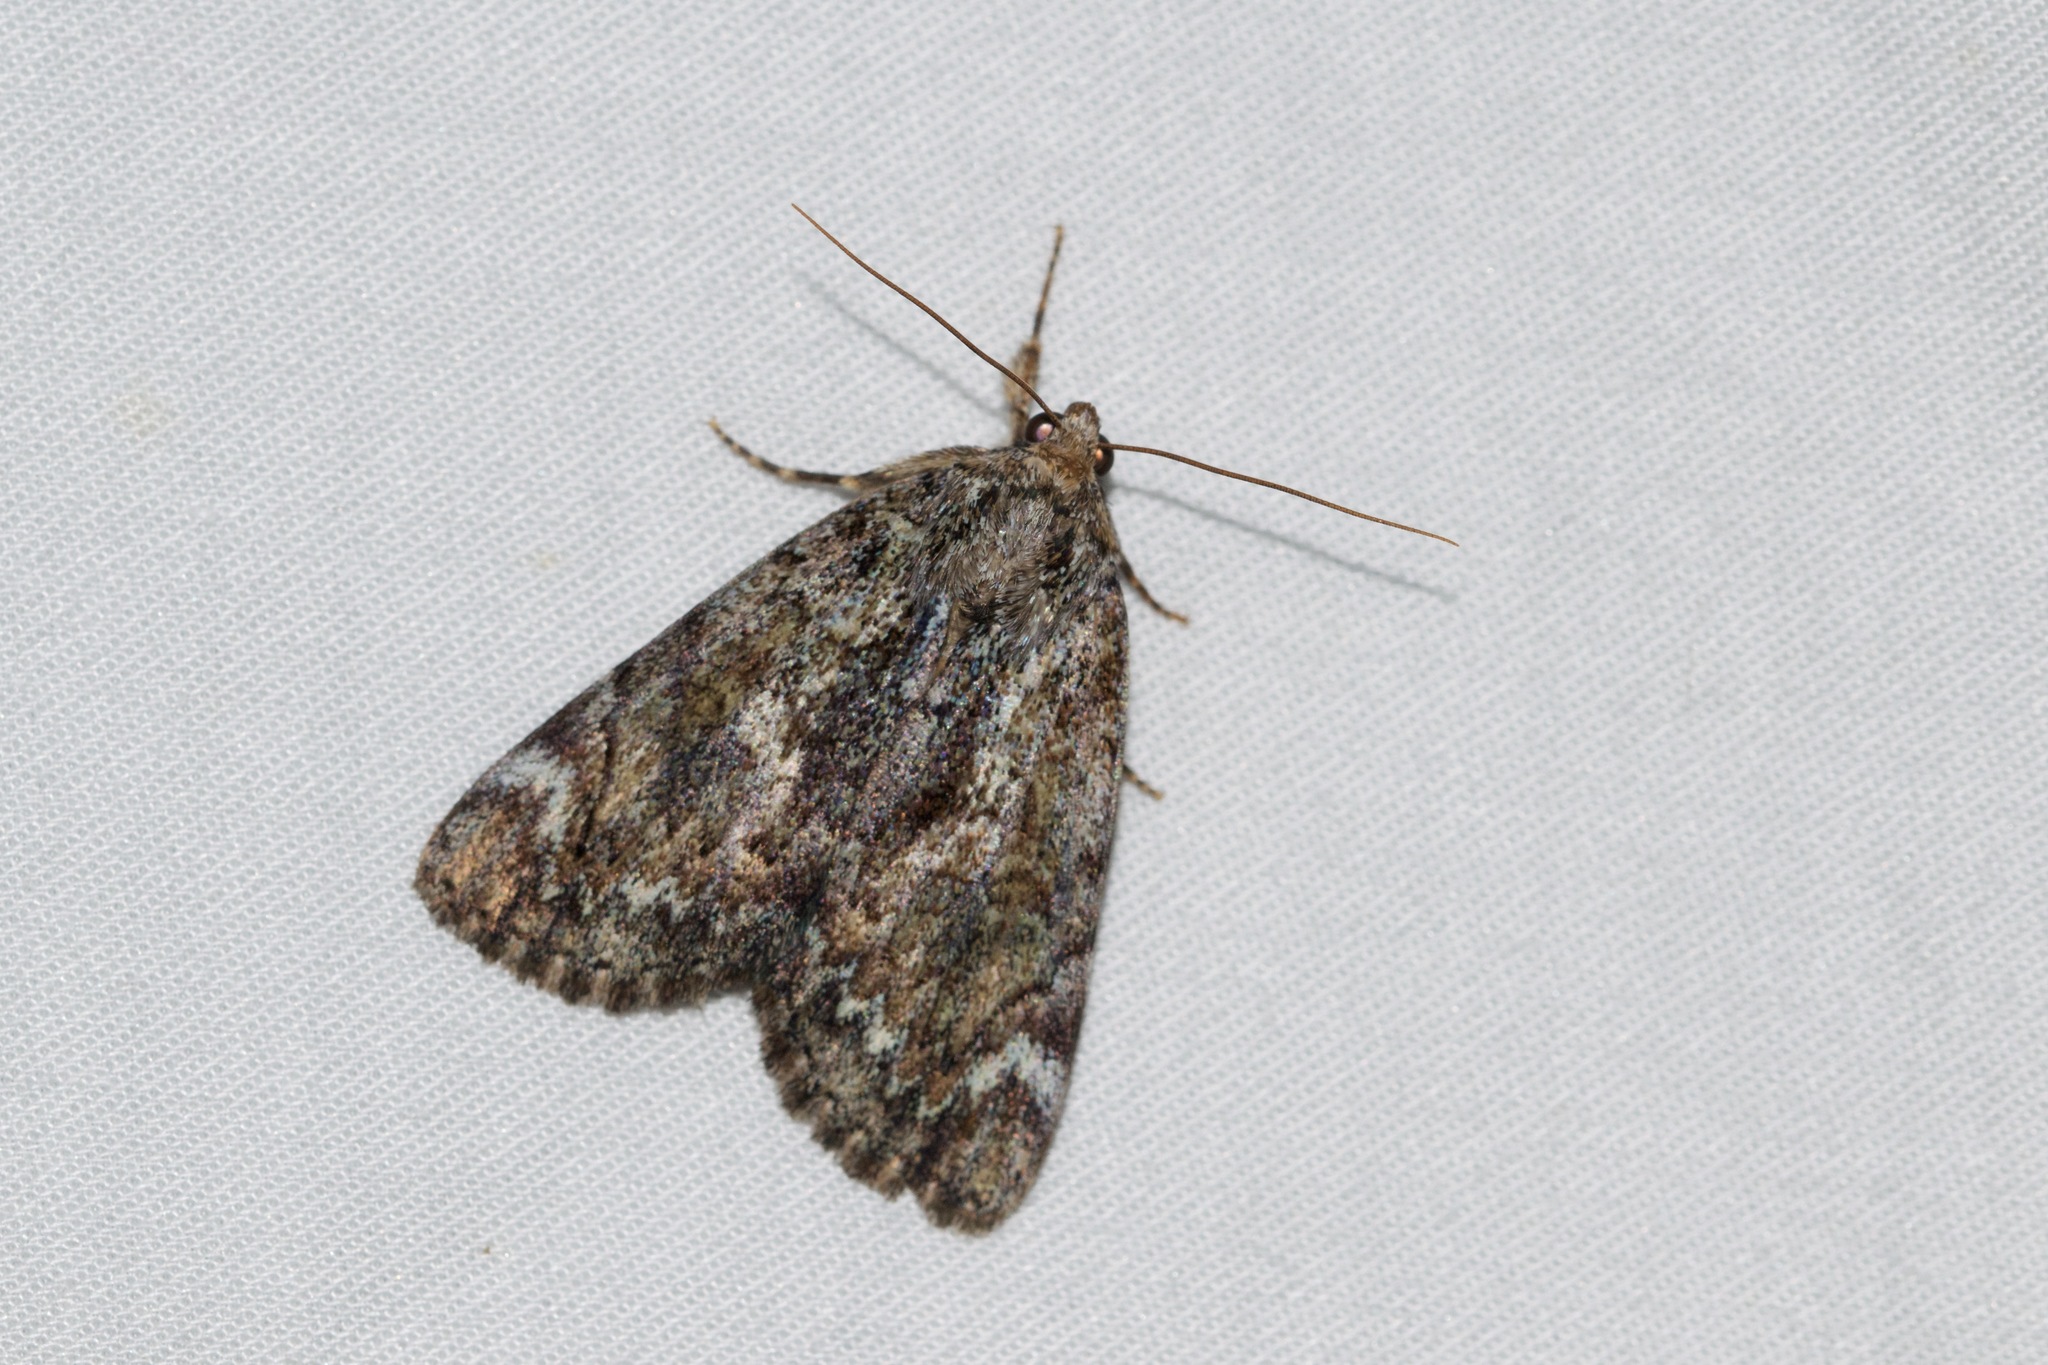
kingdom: Animalia
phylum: Arthropoda
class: Insecta
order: Lepidoptera
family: Erebidae
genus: Catocala
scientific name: Catocala minuta
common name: Little underwing
